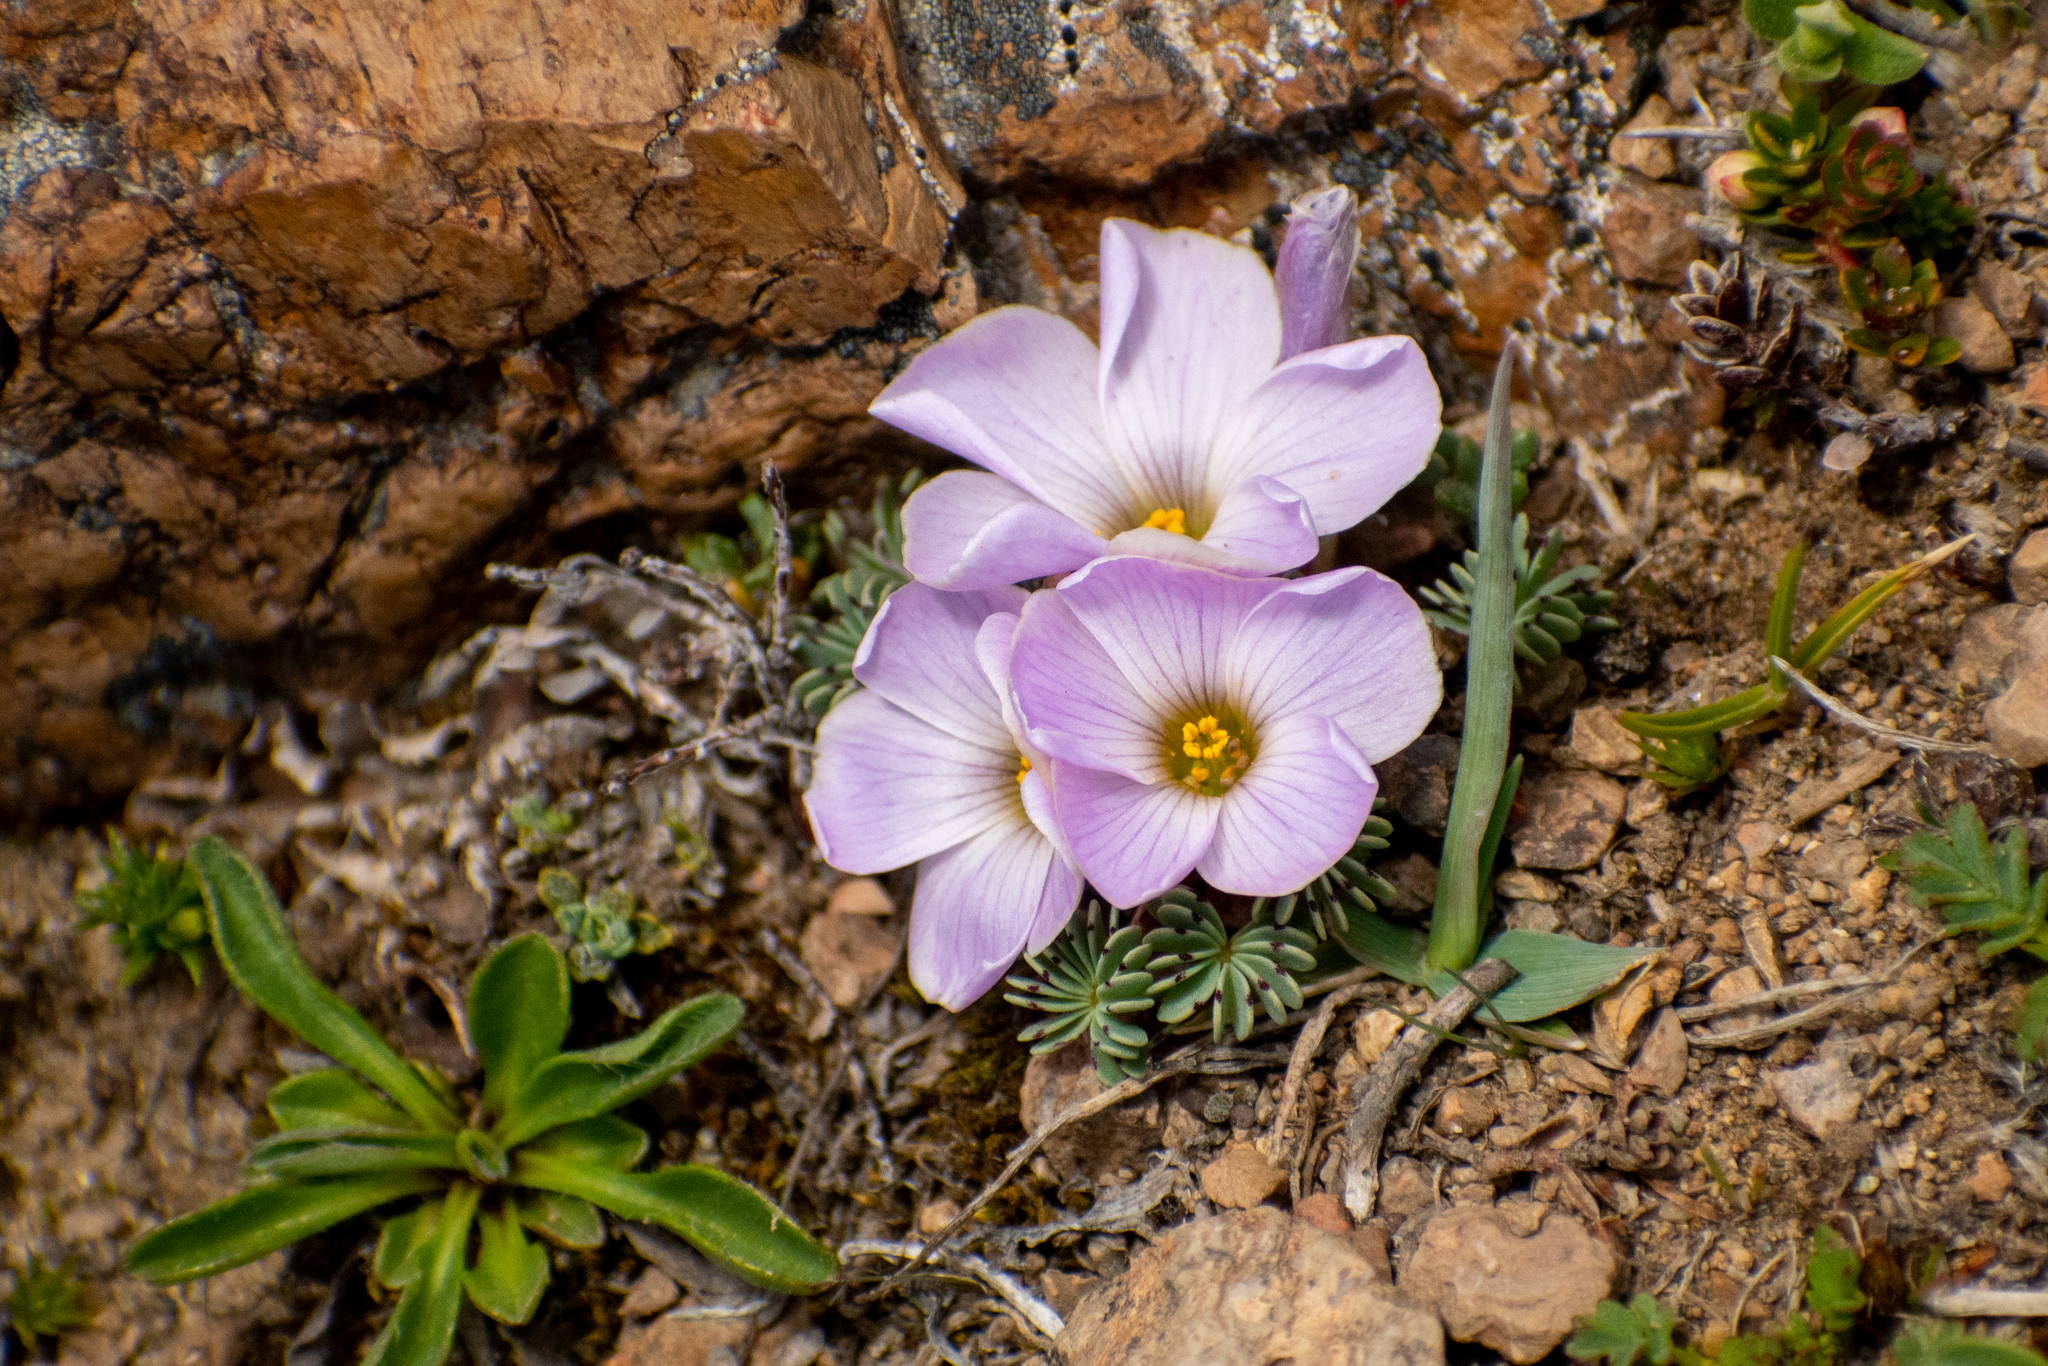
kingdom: Plantae
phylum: Tracheophyta
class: Magnoliopsida
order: Oxalidales
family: Oxalidaceae
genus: Oxalis
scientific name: Oxalis adenophylla
